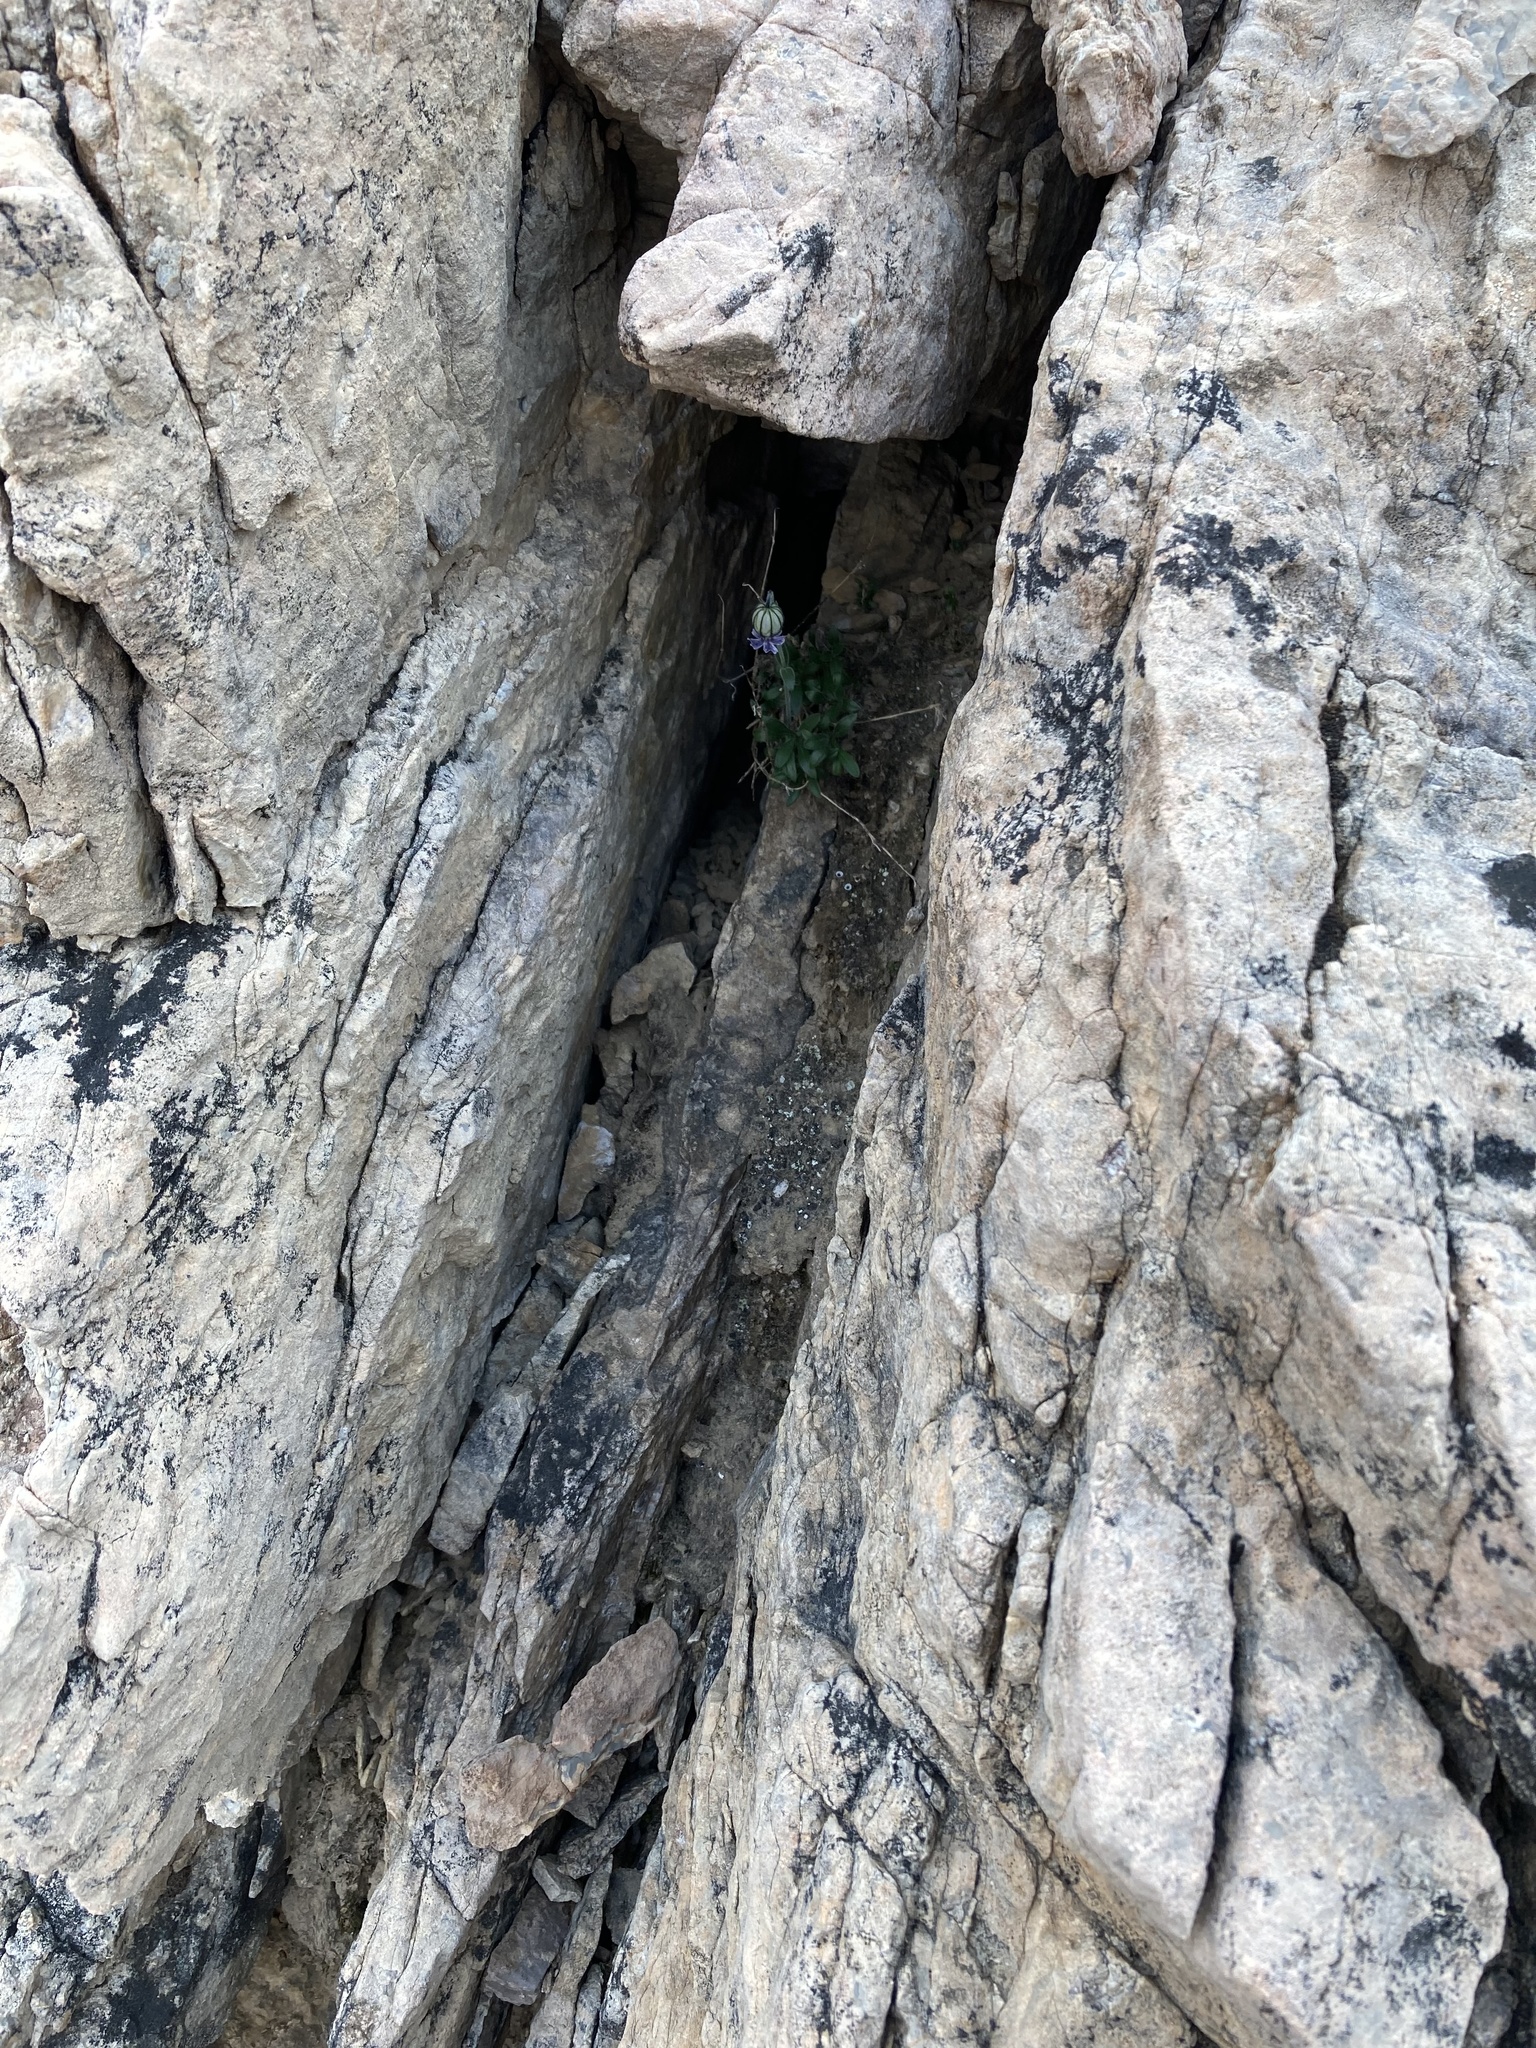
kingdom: Plantae
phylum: Tracheophyta
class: Magnoliopsida
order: Caryophyllales
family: Caryophyllaceae
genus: Silene
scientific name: Silene uralensis
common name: Nodding campion
